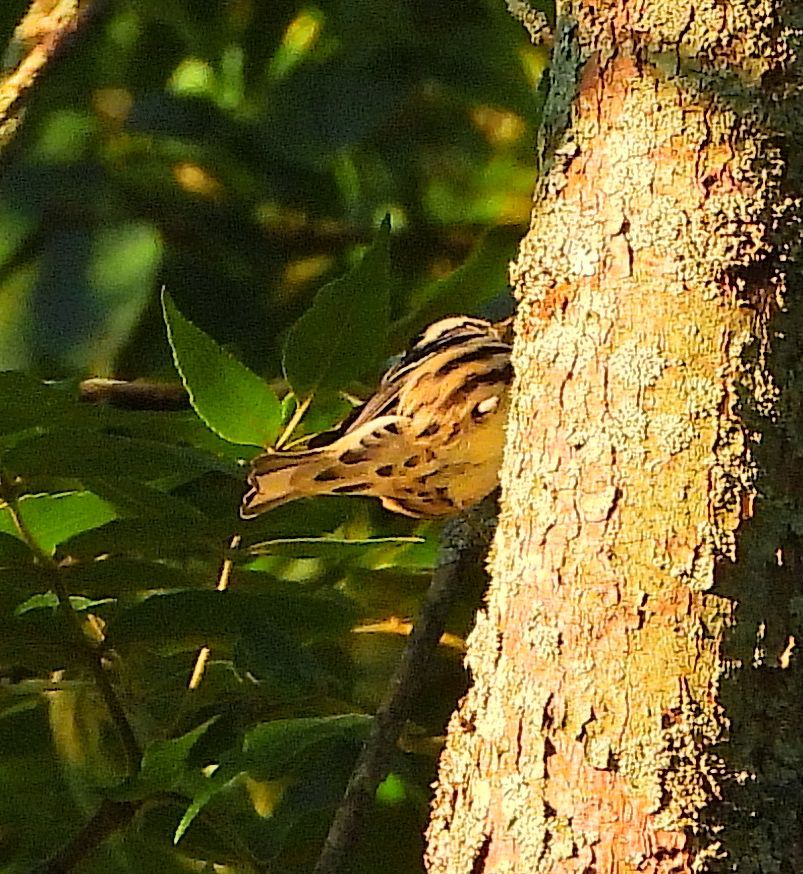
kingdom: Animalia
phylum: Chordata
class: Aves
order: Passeriformes
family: Parulidae
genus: Mniotilta
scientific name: Mniotilta varia
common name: Black-and-white warbler
